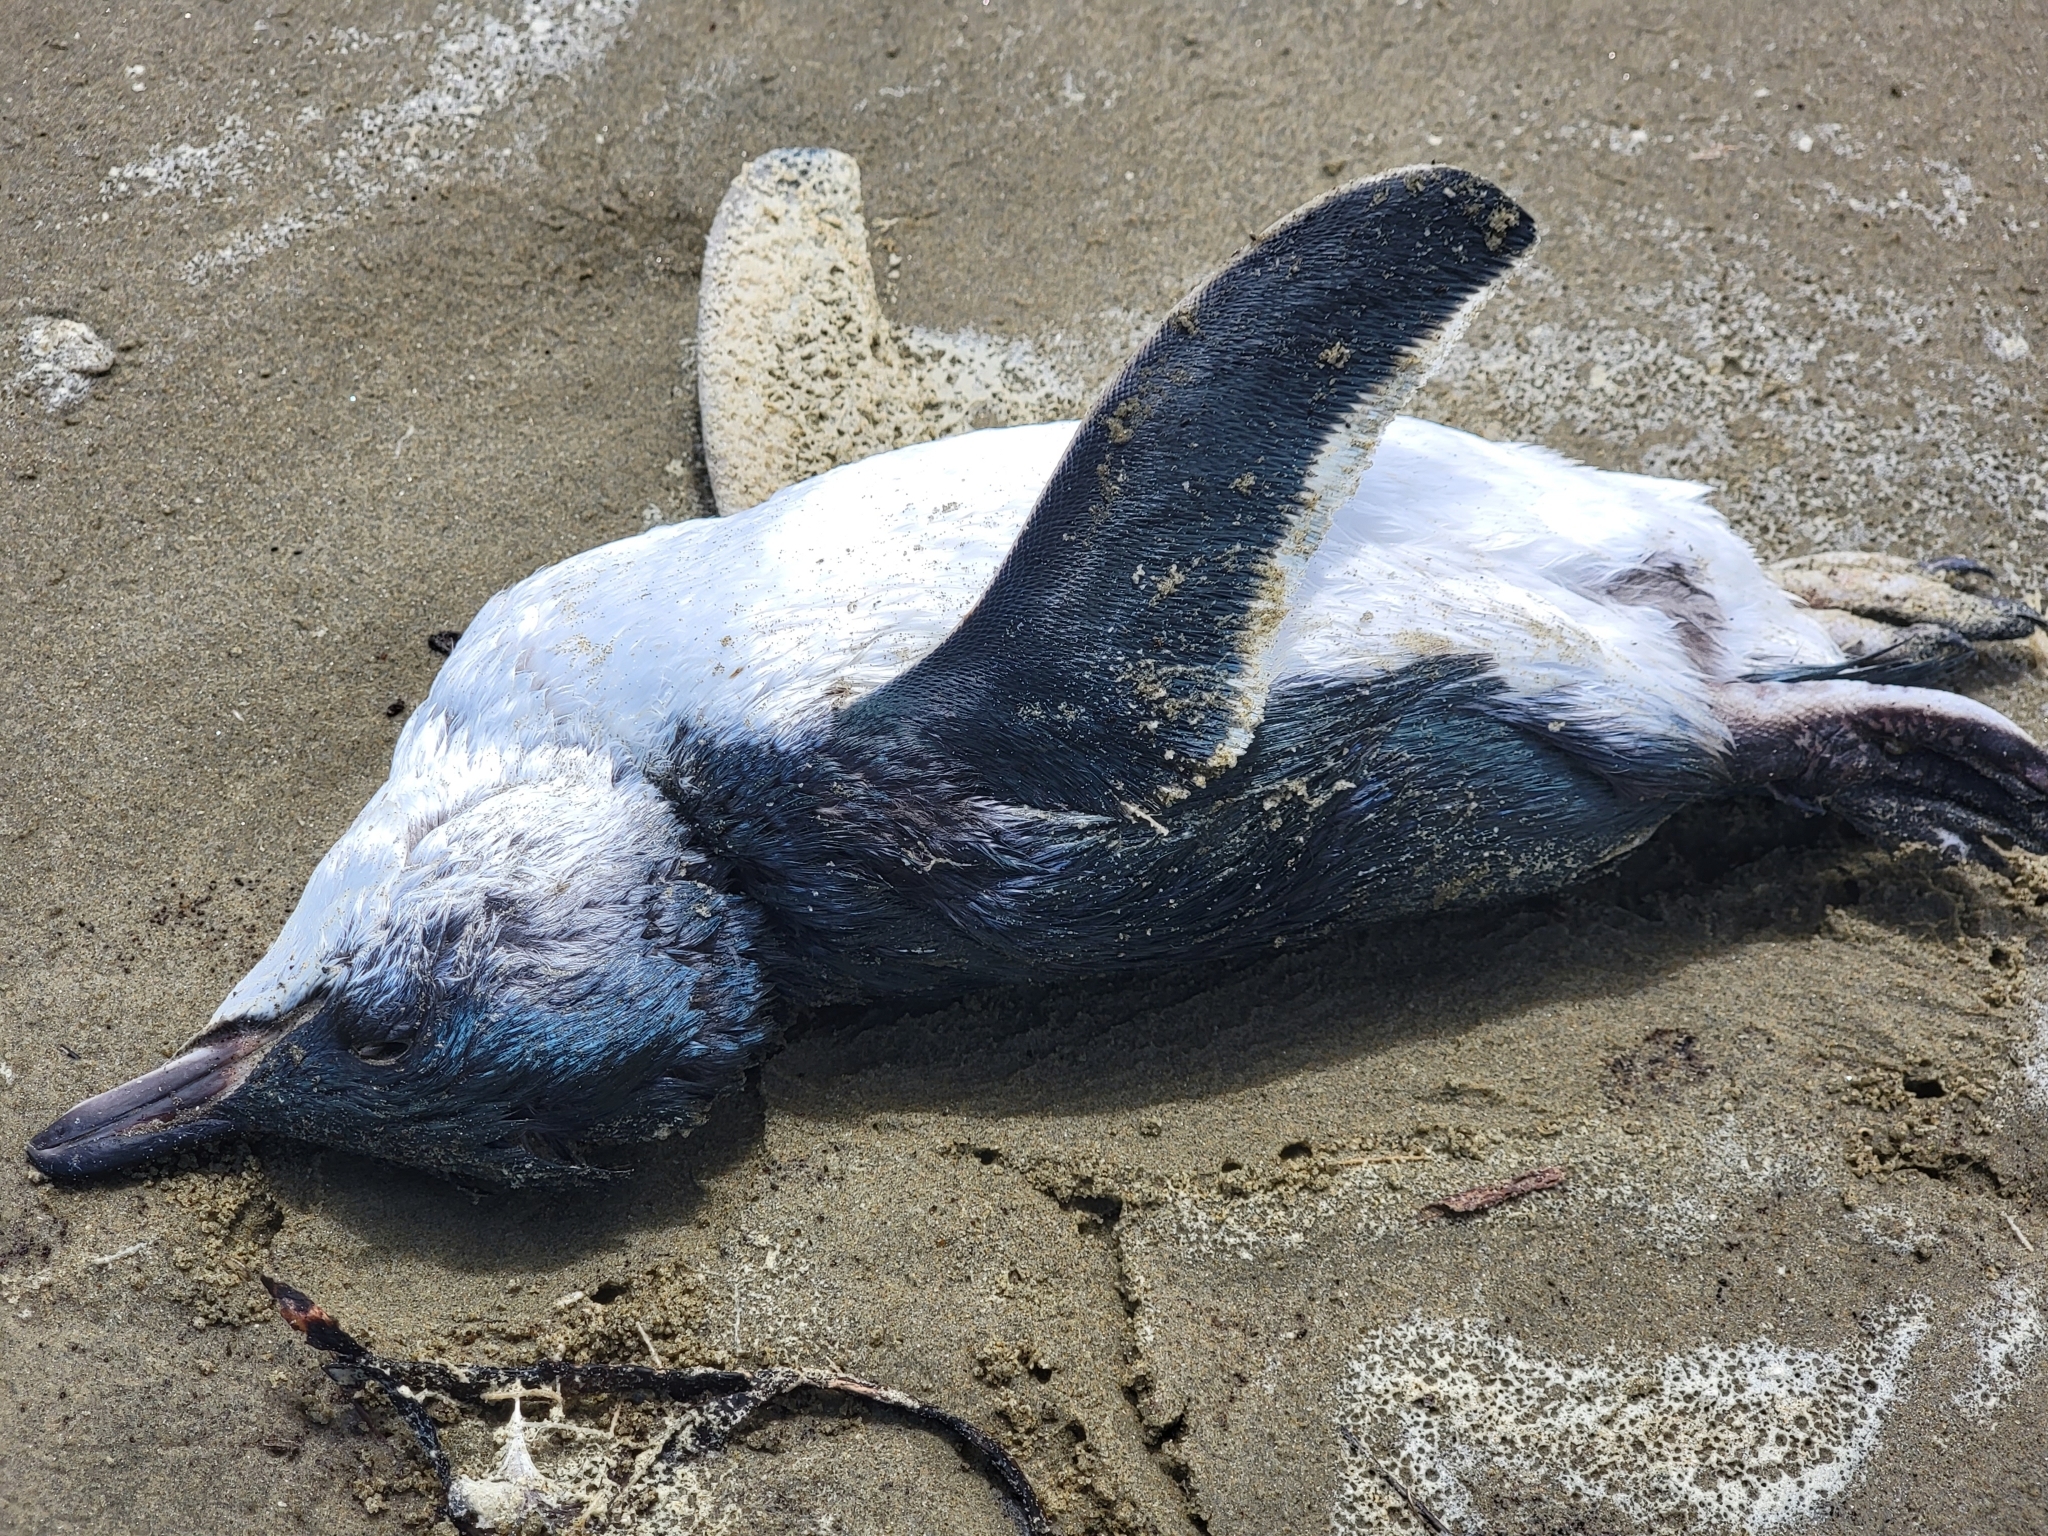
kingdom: Animalia
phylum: Chordata
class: Aves
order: Sphenisciformes
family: Spheniscidae
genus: Eudyptula
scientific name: Eudyptula minor
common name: Little penguin
